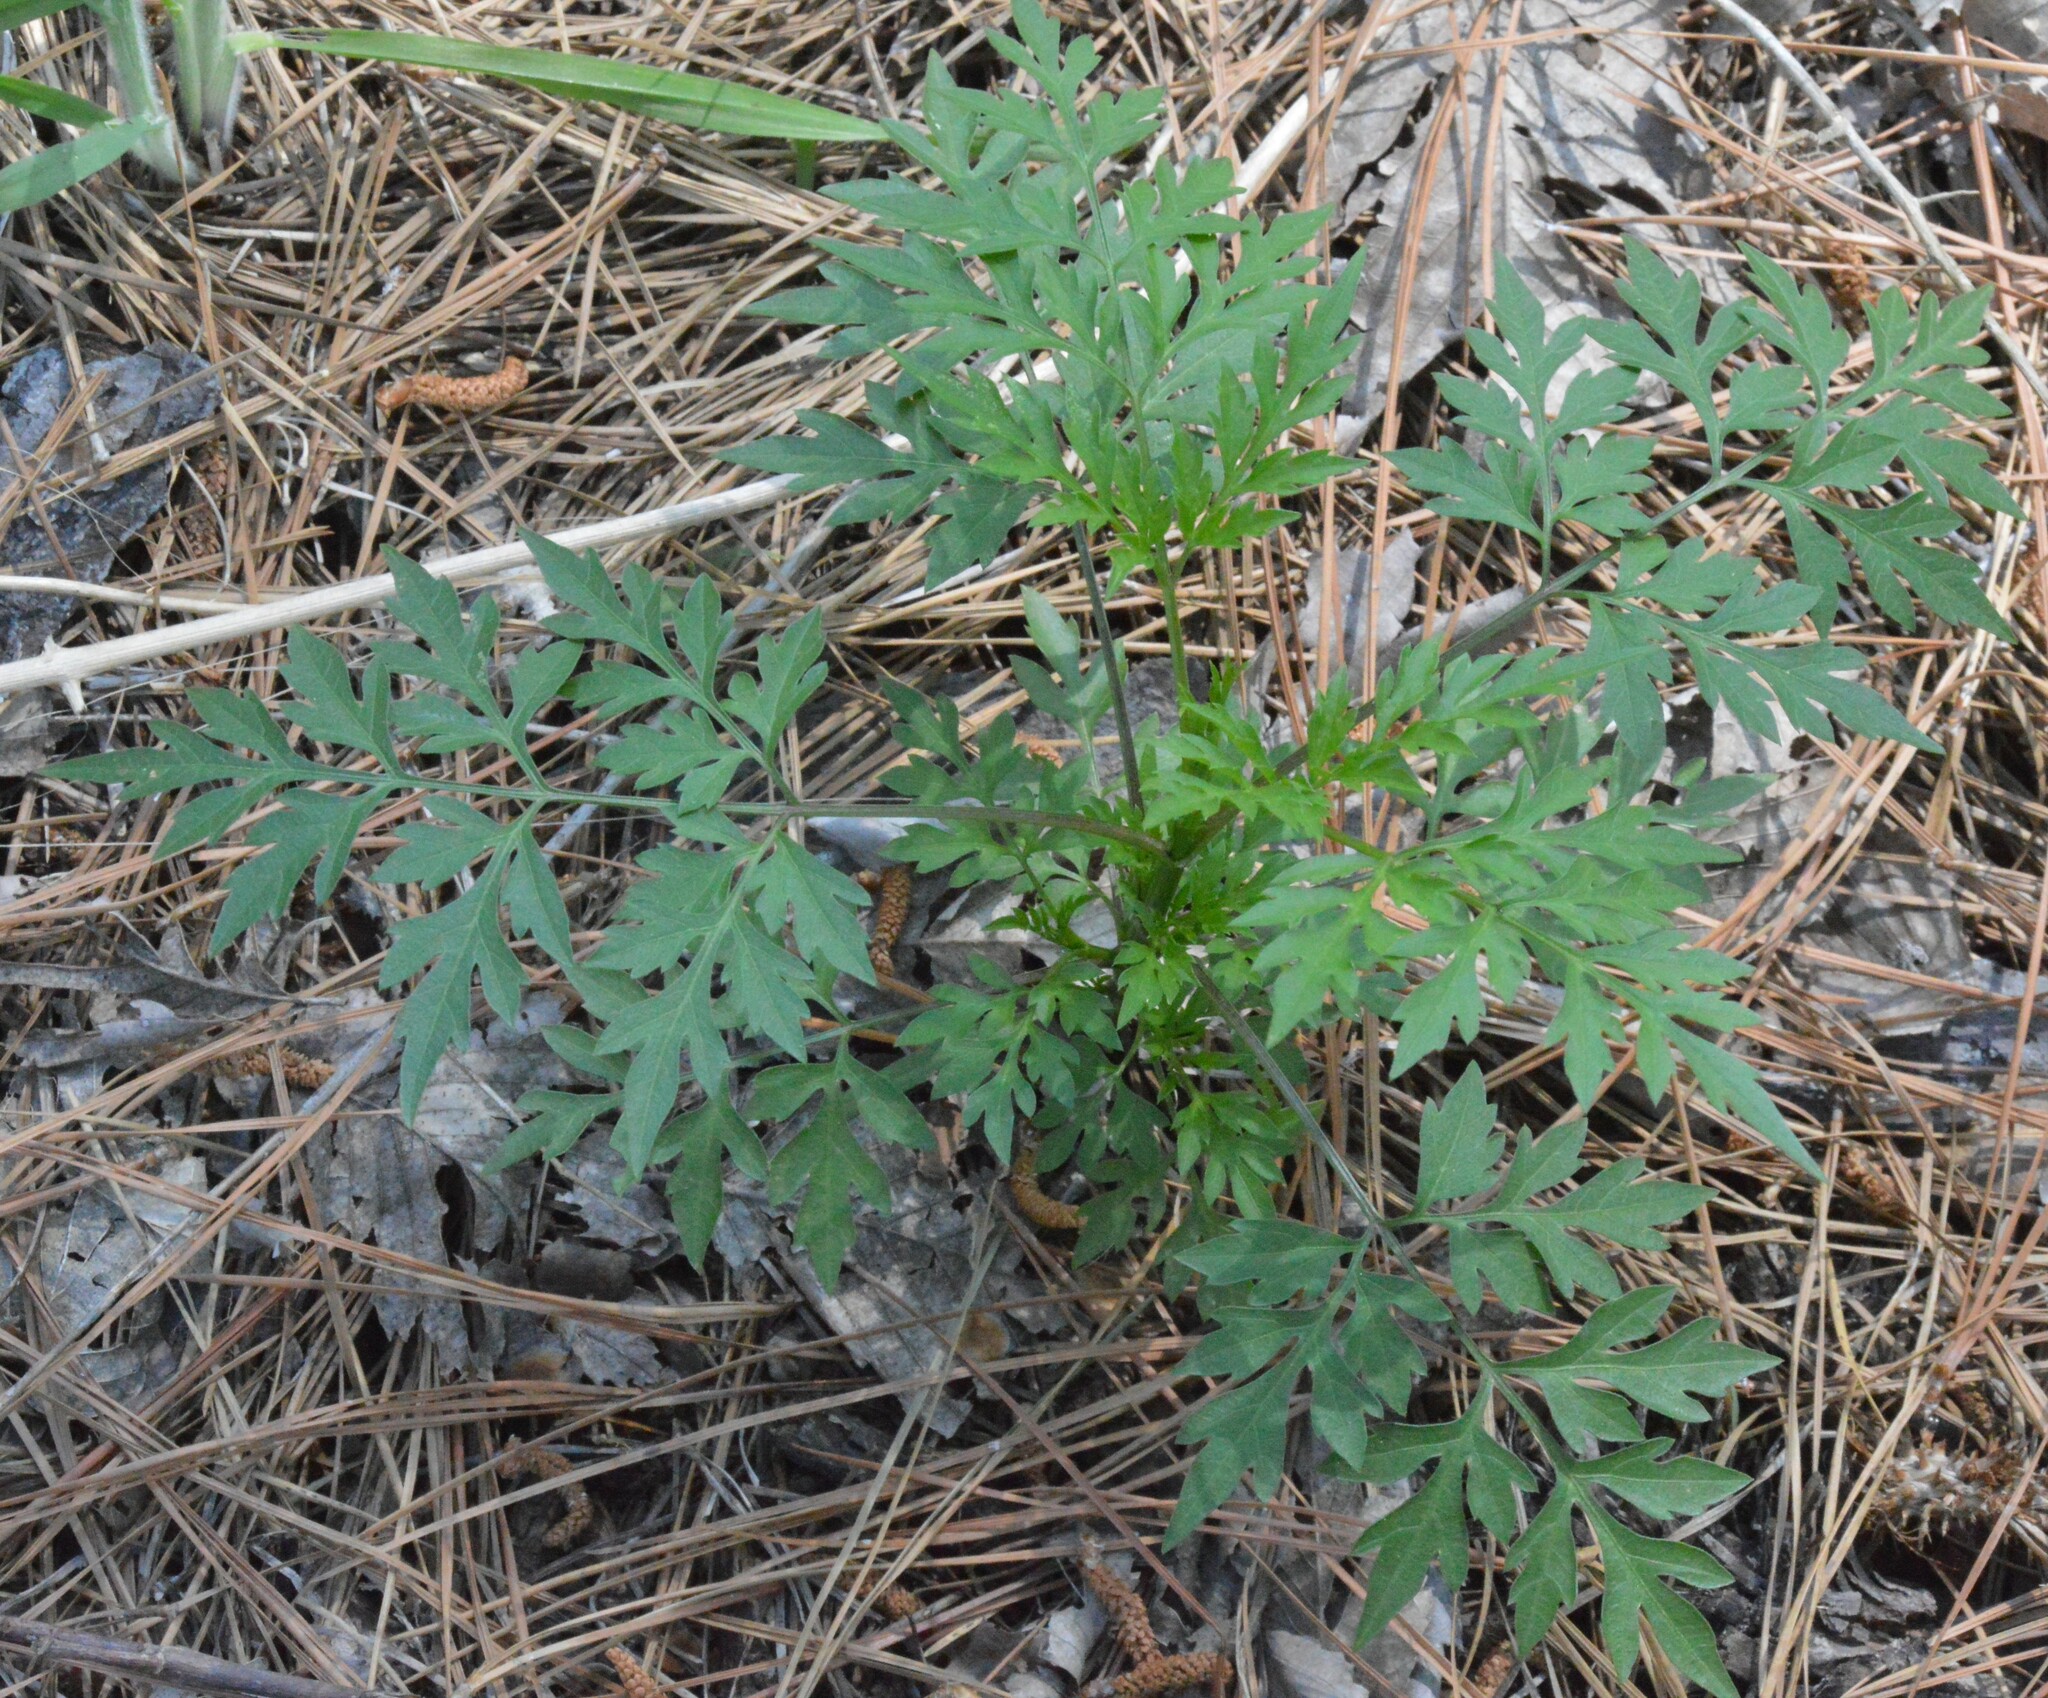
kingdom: Plantae
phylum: Tracheophyta
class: Magnoliopsida
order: Asterales
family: Asteraceae
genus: Ambrosia
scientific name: Ambrosia artemisiifolia
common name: Annual ragweed
